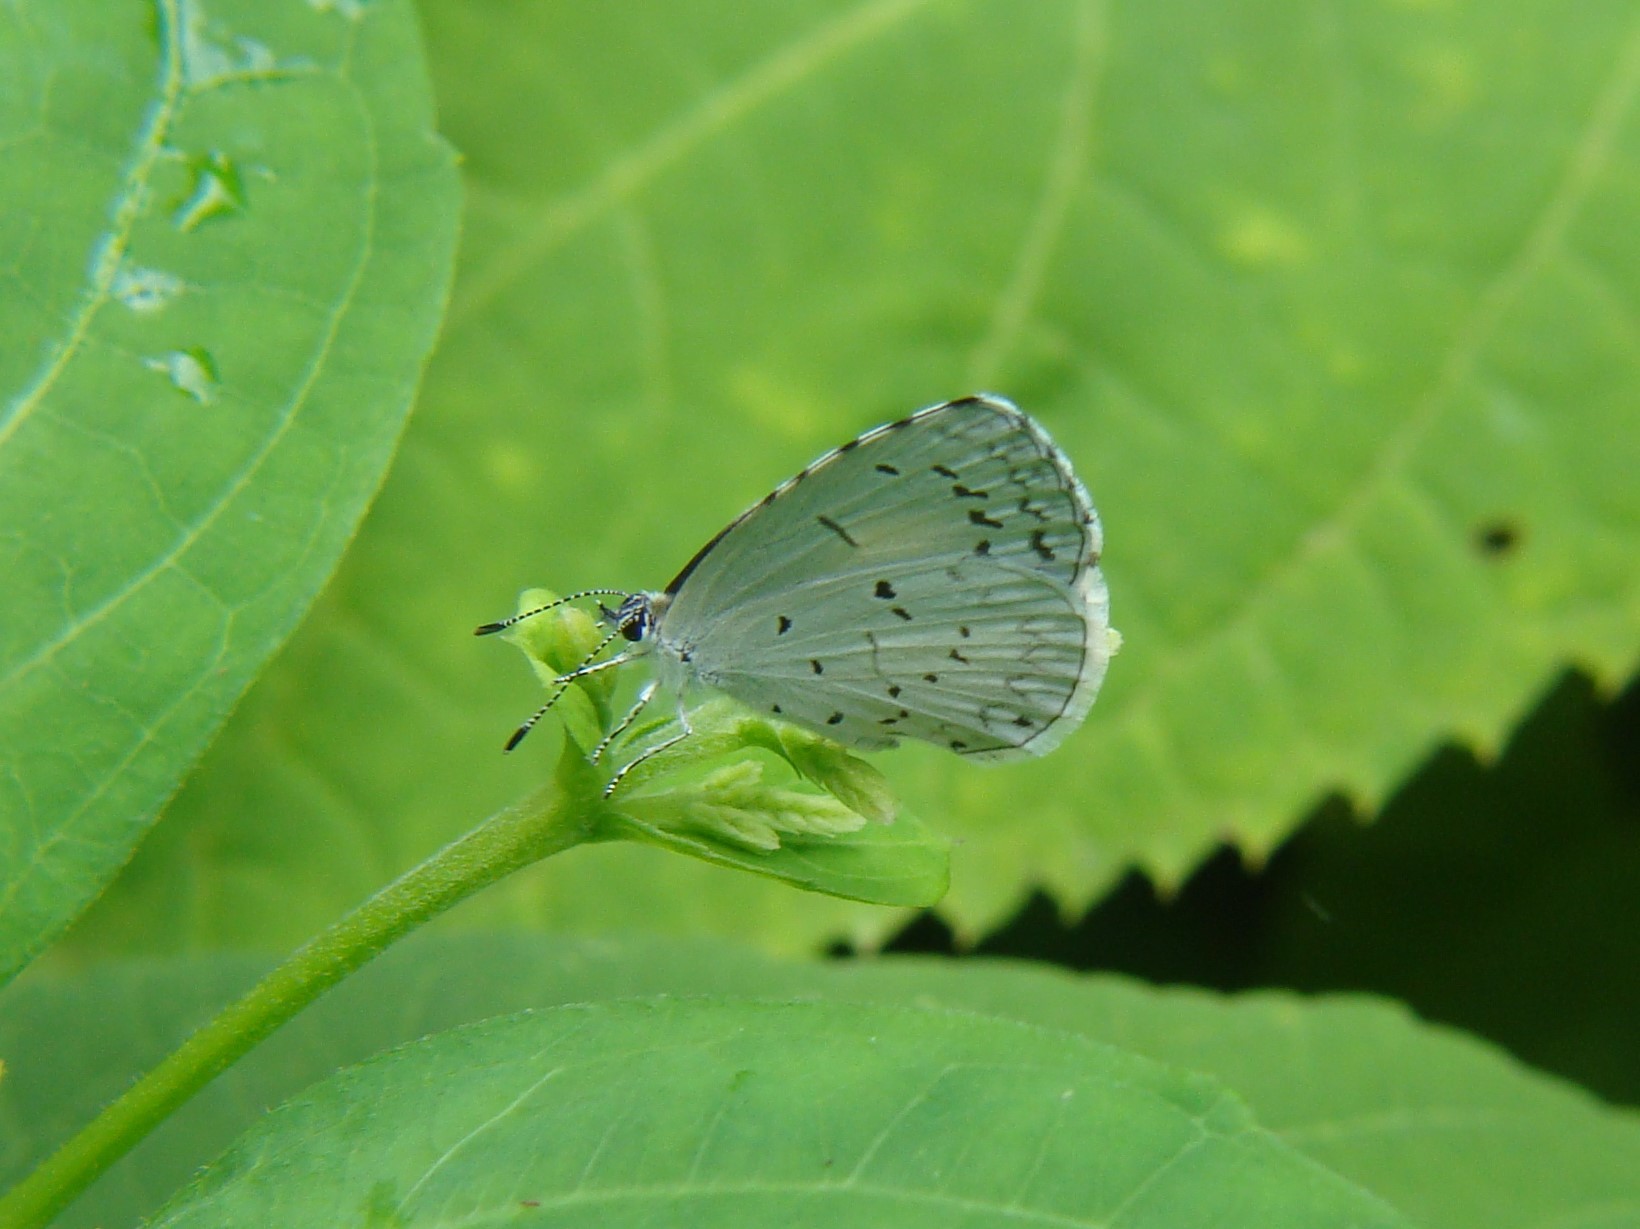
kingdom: Animalia
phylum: Arthropoda
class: Insecta
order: Lepidoptera
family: Lycaenidae
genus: Cyaniris
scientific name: Cyaniris neglecta
